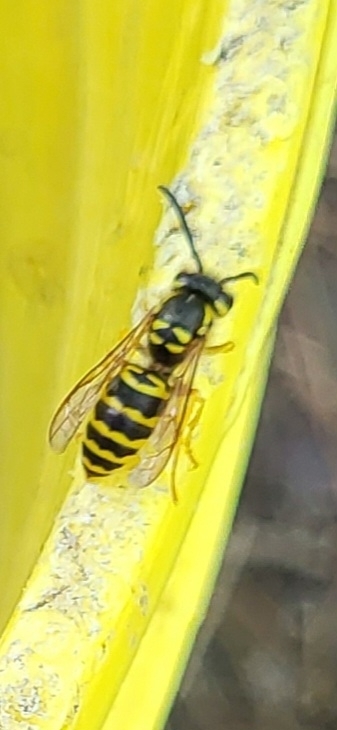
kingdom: Animalia
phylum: Arthropoda
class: Insecta
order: Hymenoptera
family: Vespidae
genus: Vespula
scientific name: Vespula maculifrons
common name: Eastern yellowjacket
